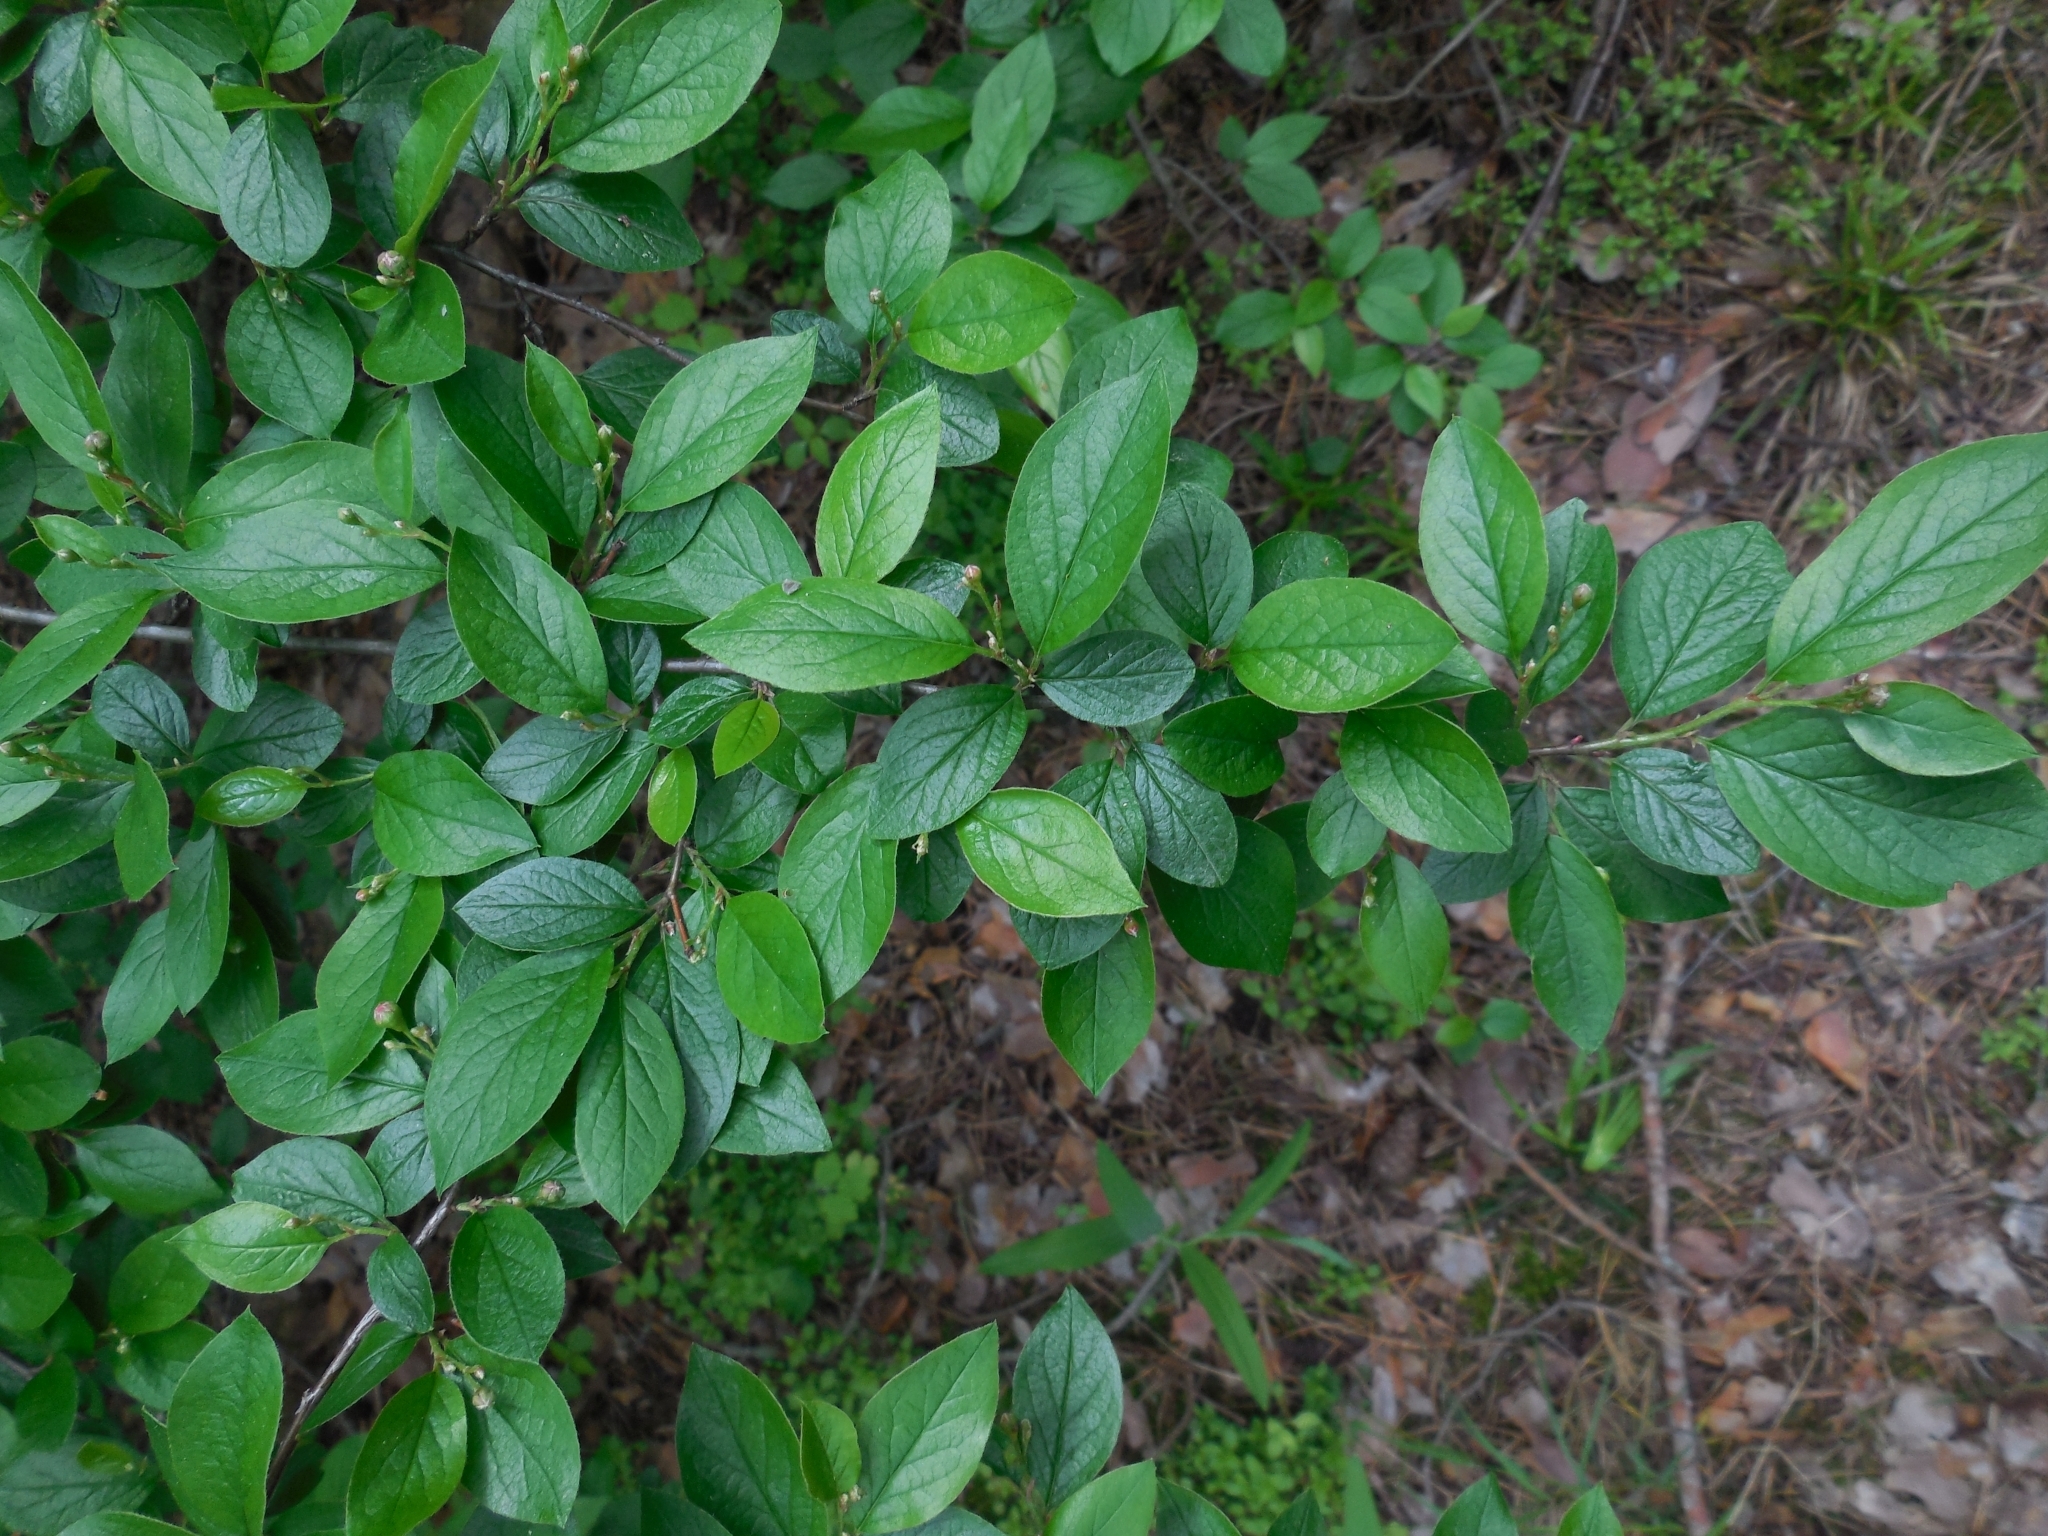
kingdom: Plantae
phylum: Tracheophyta
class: Magnoliopsida
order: Rosales
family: Rosaceae
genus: Cotoneaster
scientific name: Cotoneaster acutifolius
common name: Peking cotoneaster
